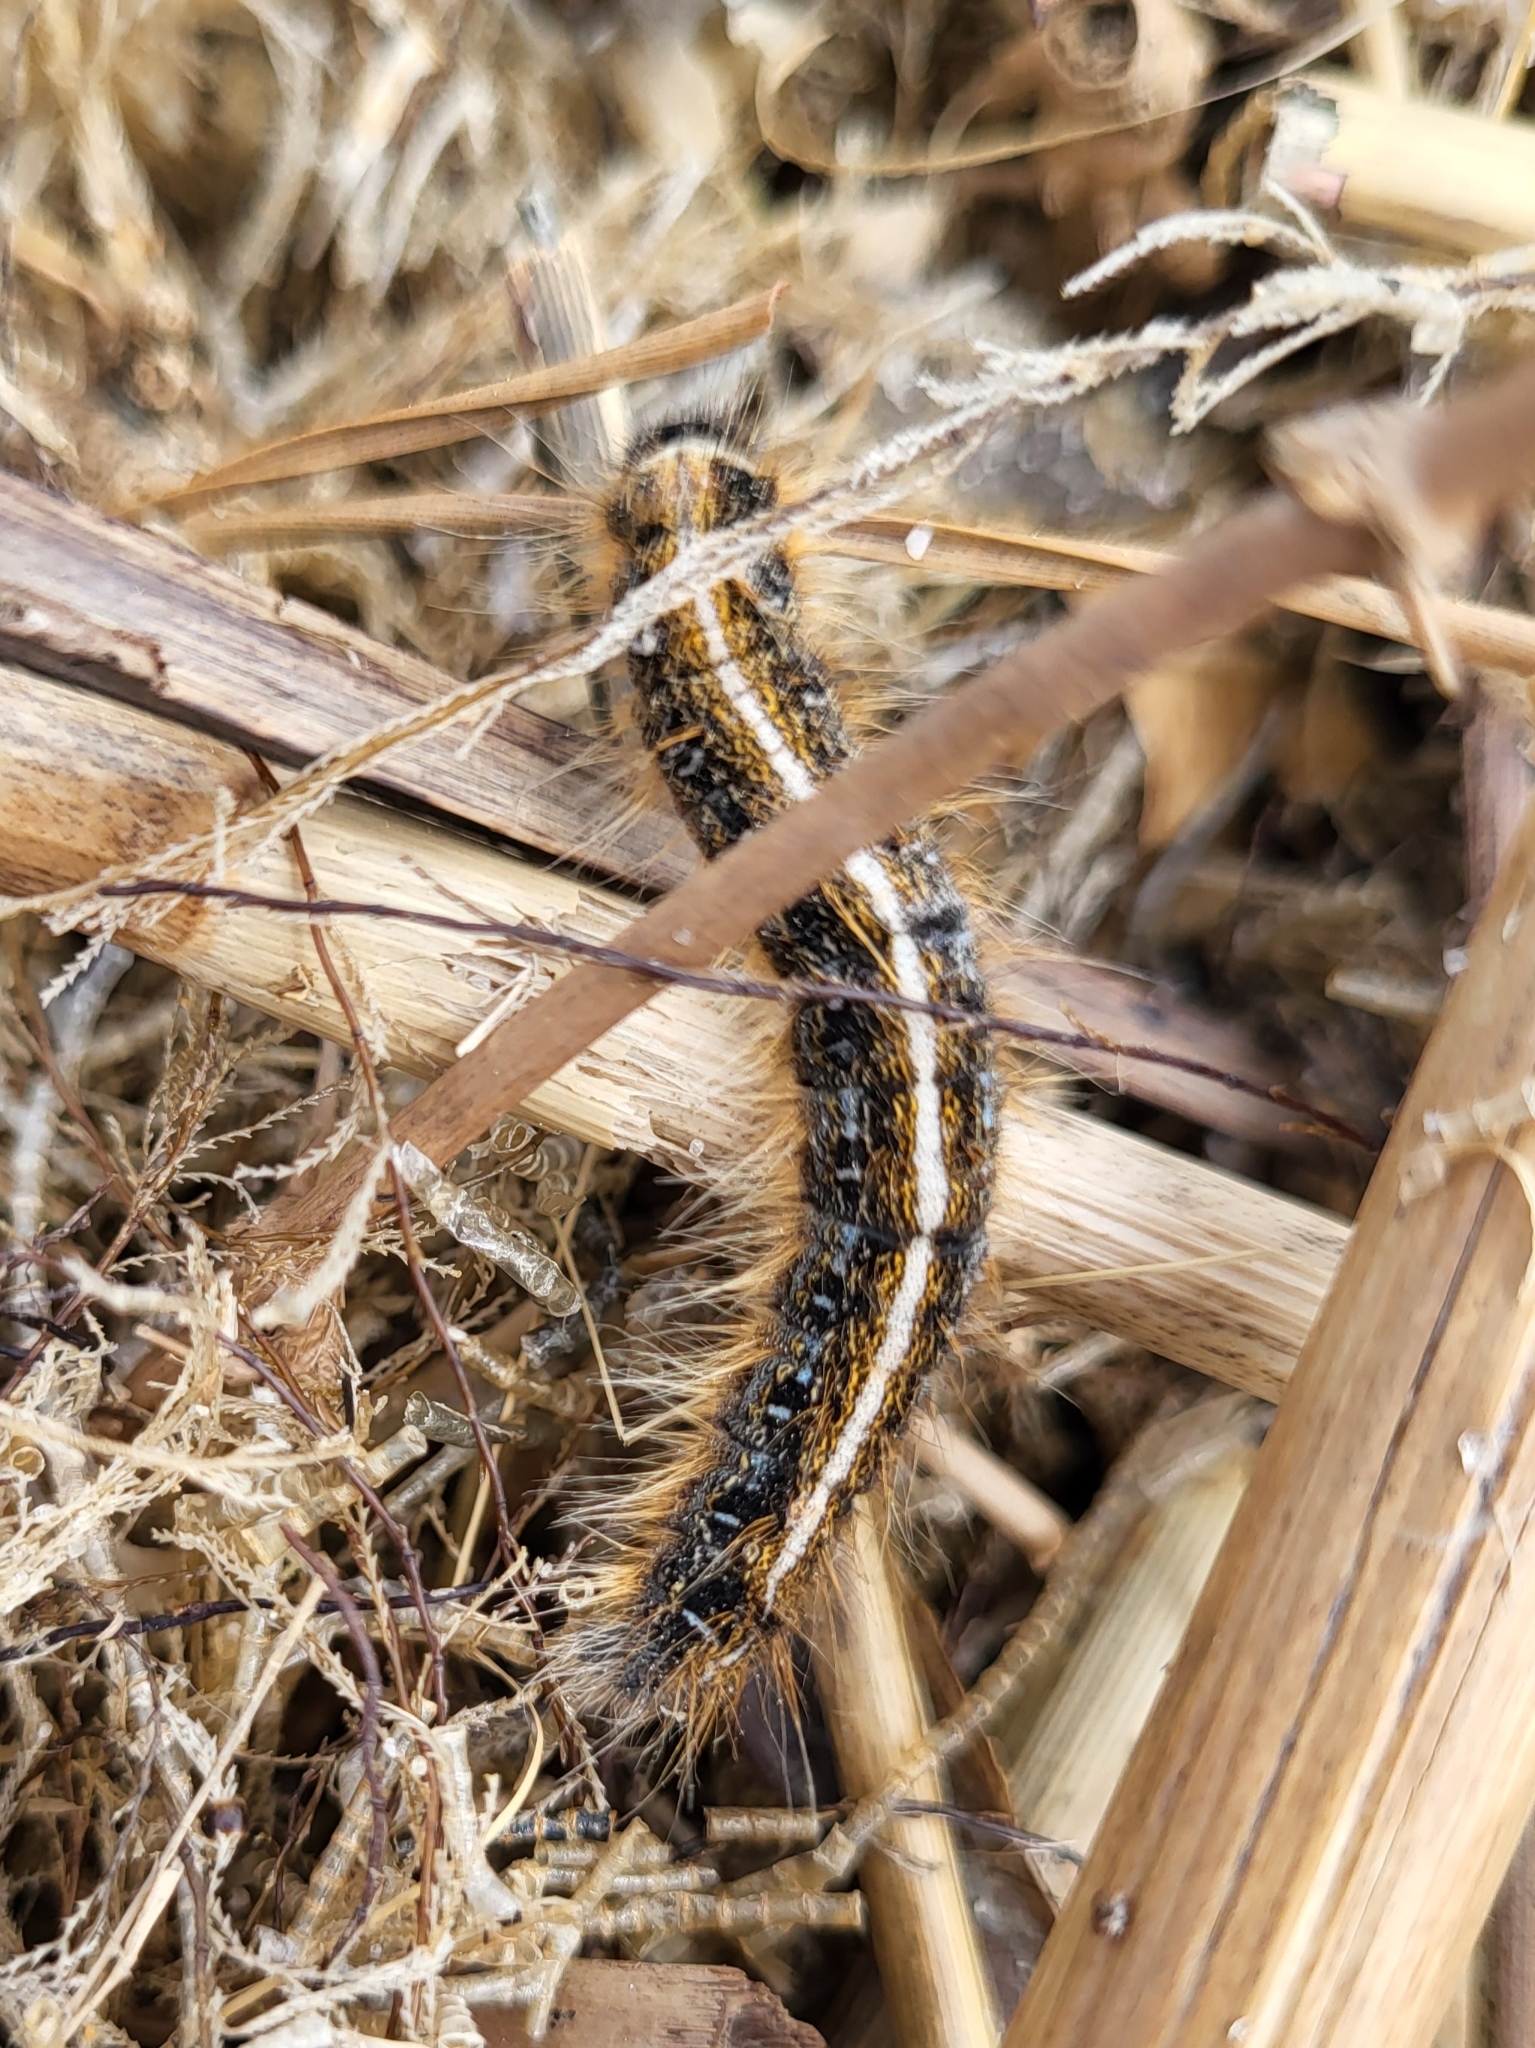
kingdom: Animalia
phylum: Arthropoda
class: Insecta
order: Lepidoptera
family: Lasiocampidae
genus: Malacosoma
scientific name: Malacosoma americana
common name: Eastern tent caterpillar moth
